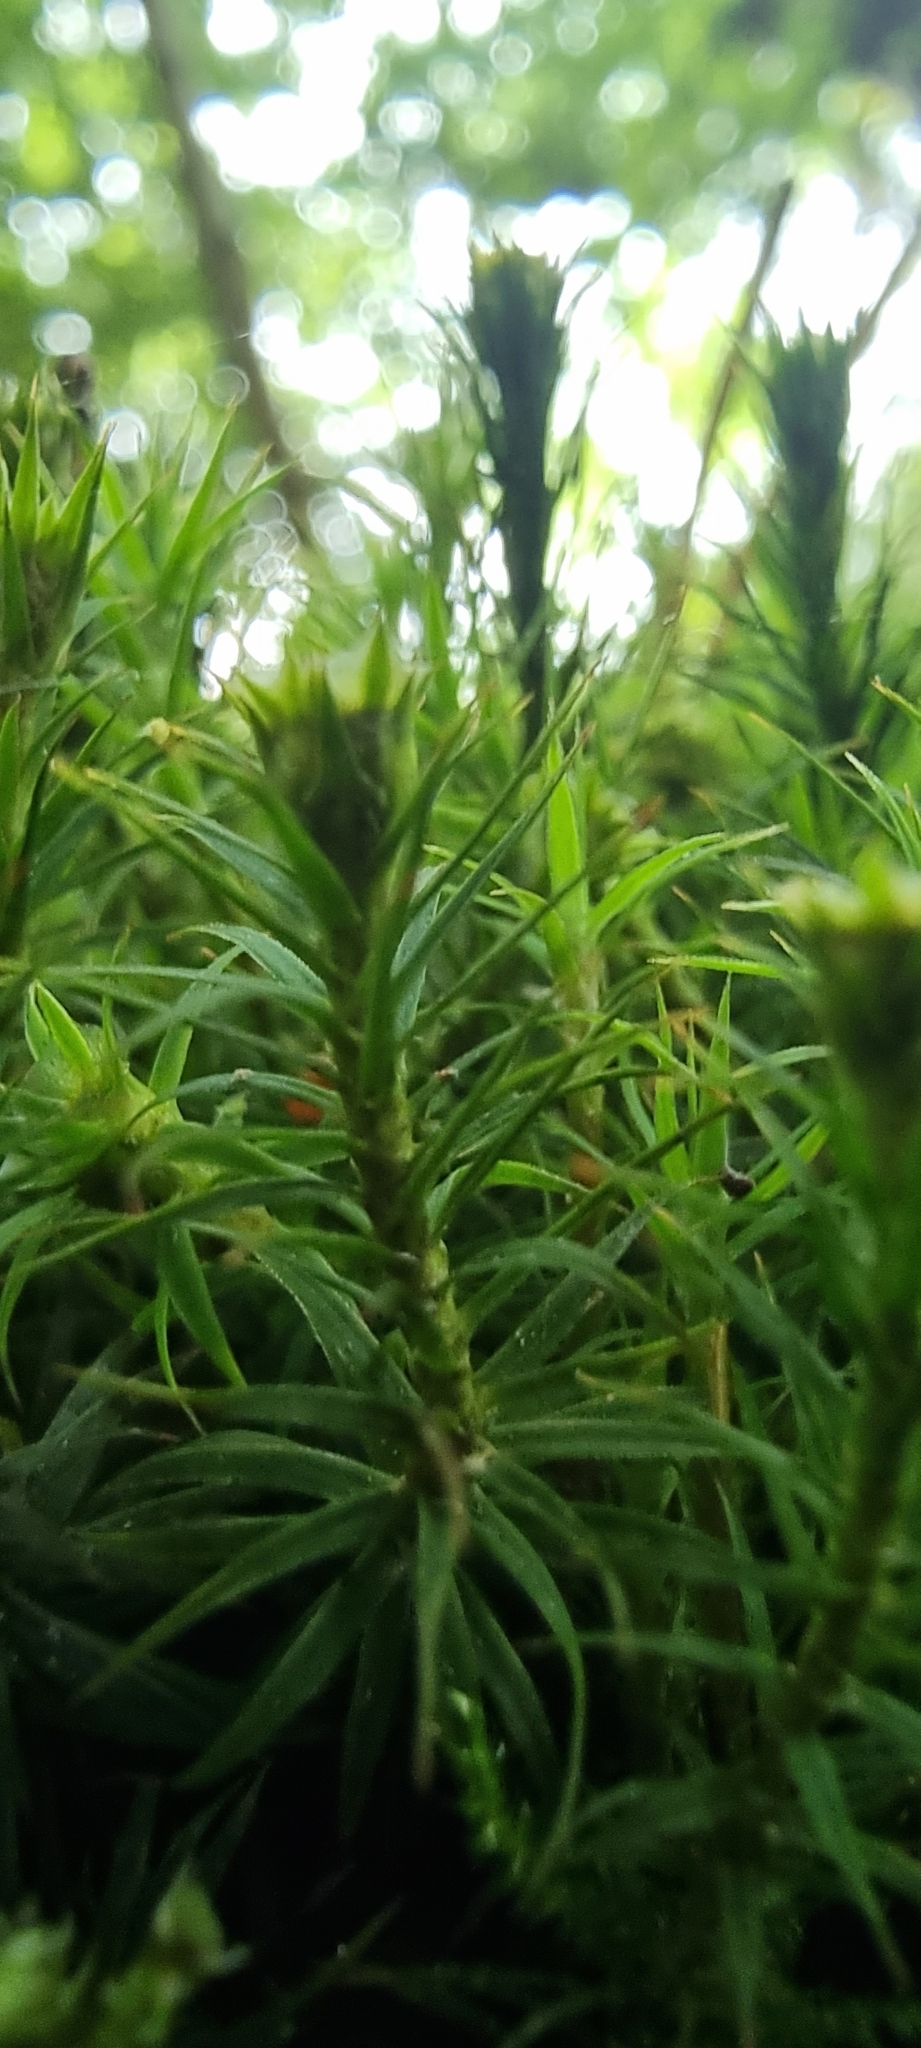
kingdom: Plantae
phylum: Bryophyta
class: Polytrichopsida
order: Polytrichales
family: Polytrichaceae
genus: Polytrichum
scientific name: Polytrichum formosum
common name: Bank haircap moss
